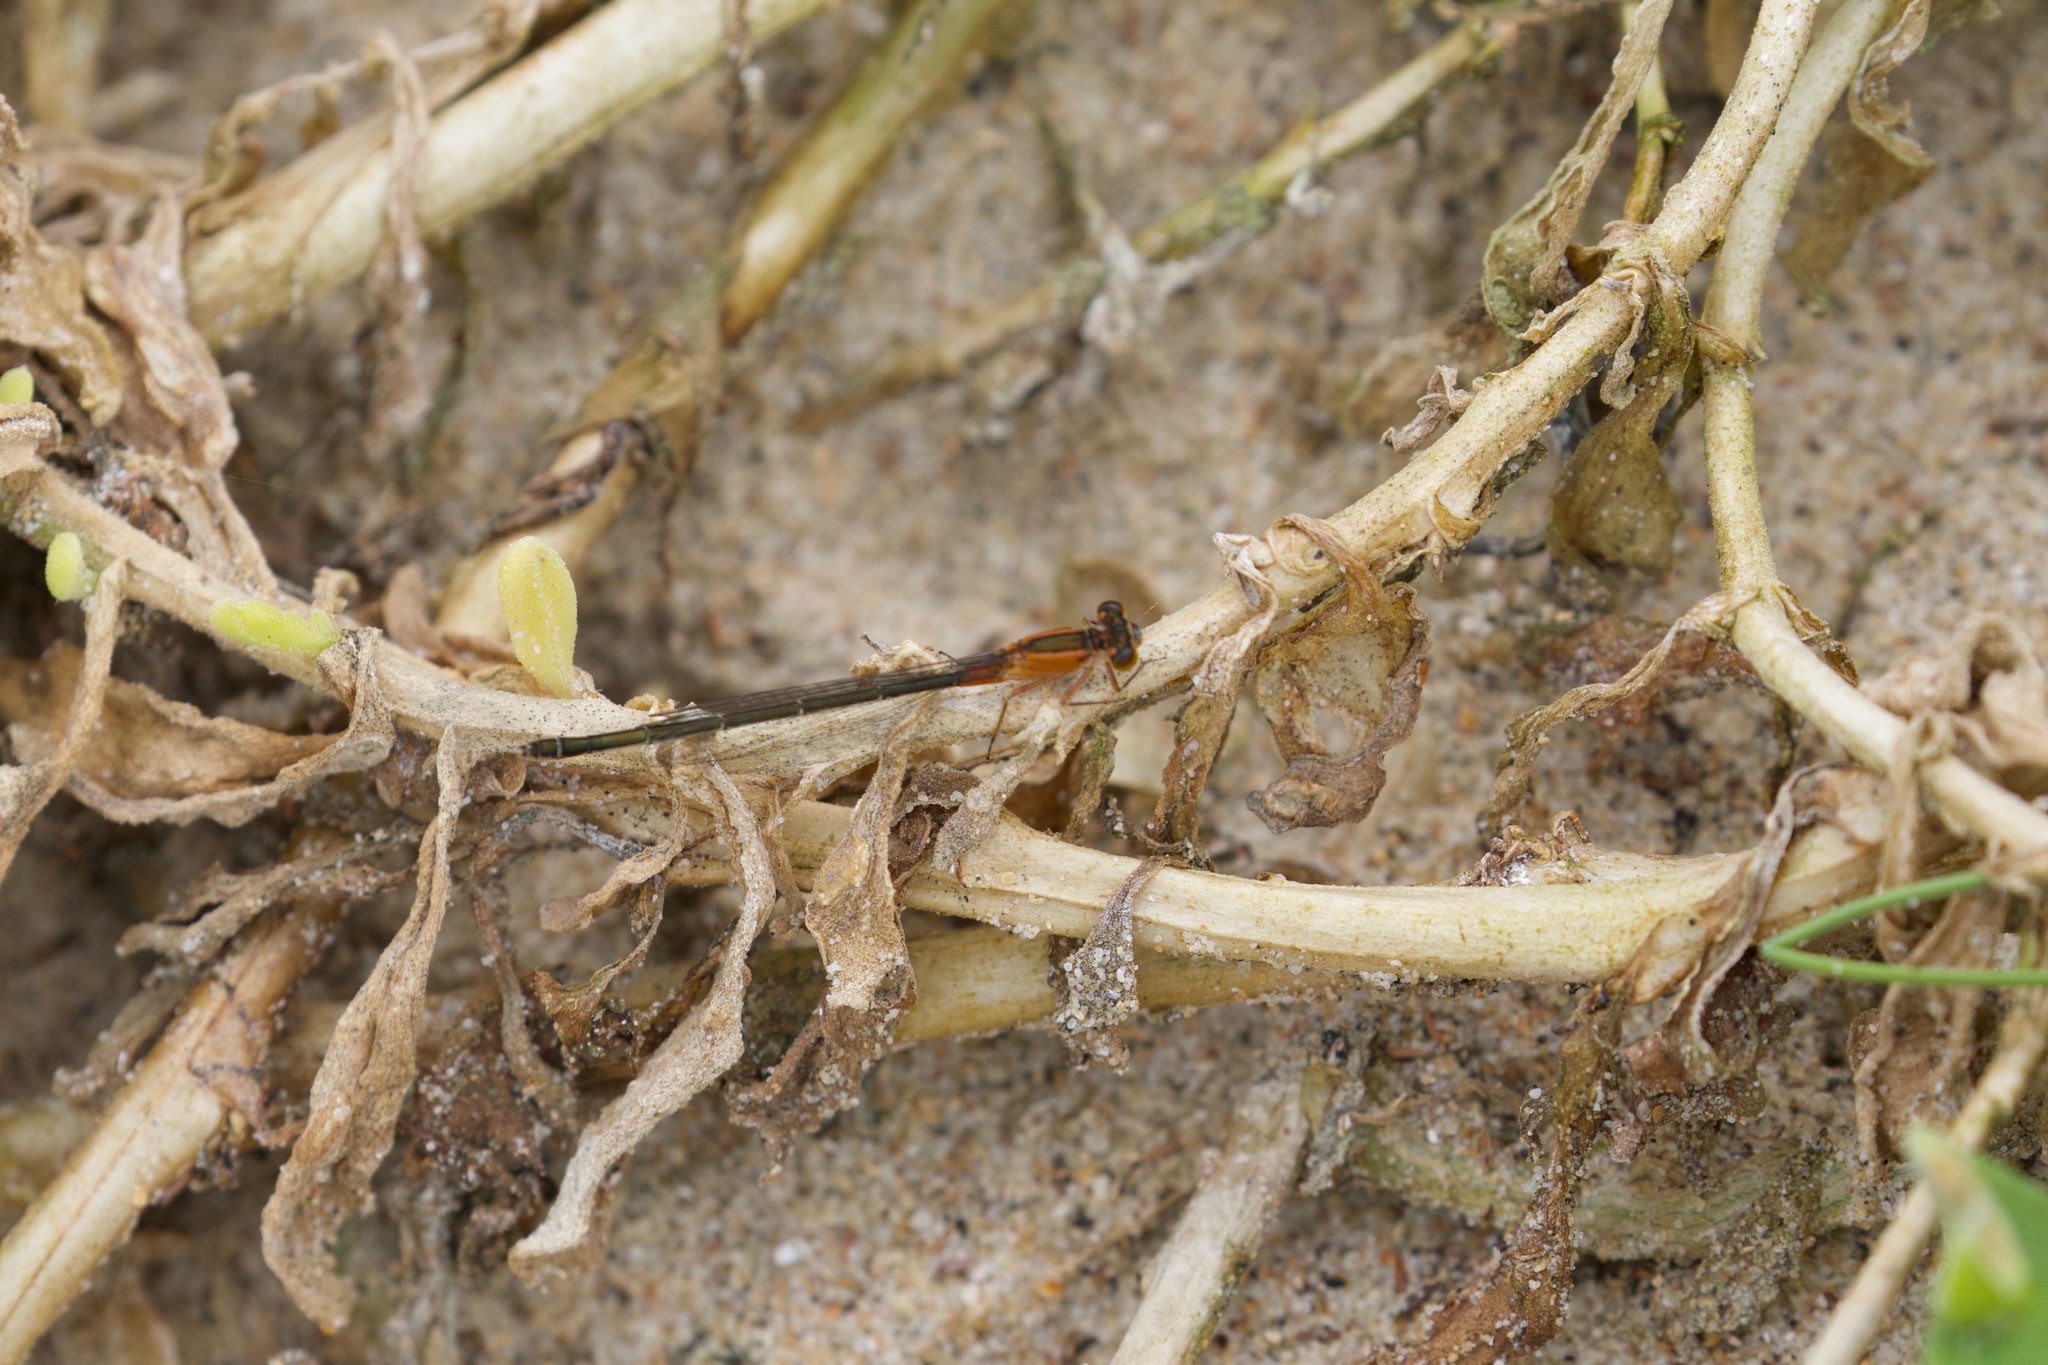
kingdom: Animalia
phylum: Arthropoda
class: Insecta
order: Odonata
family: Coenagrionidae
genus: Ischnura
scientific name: Ischnura senegalensis
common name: Tropical bluetail
